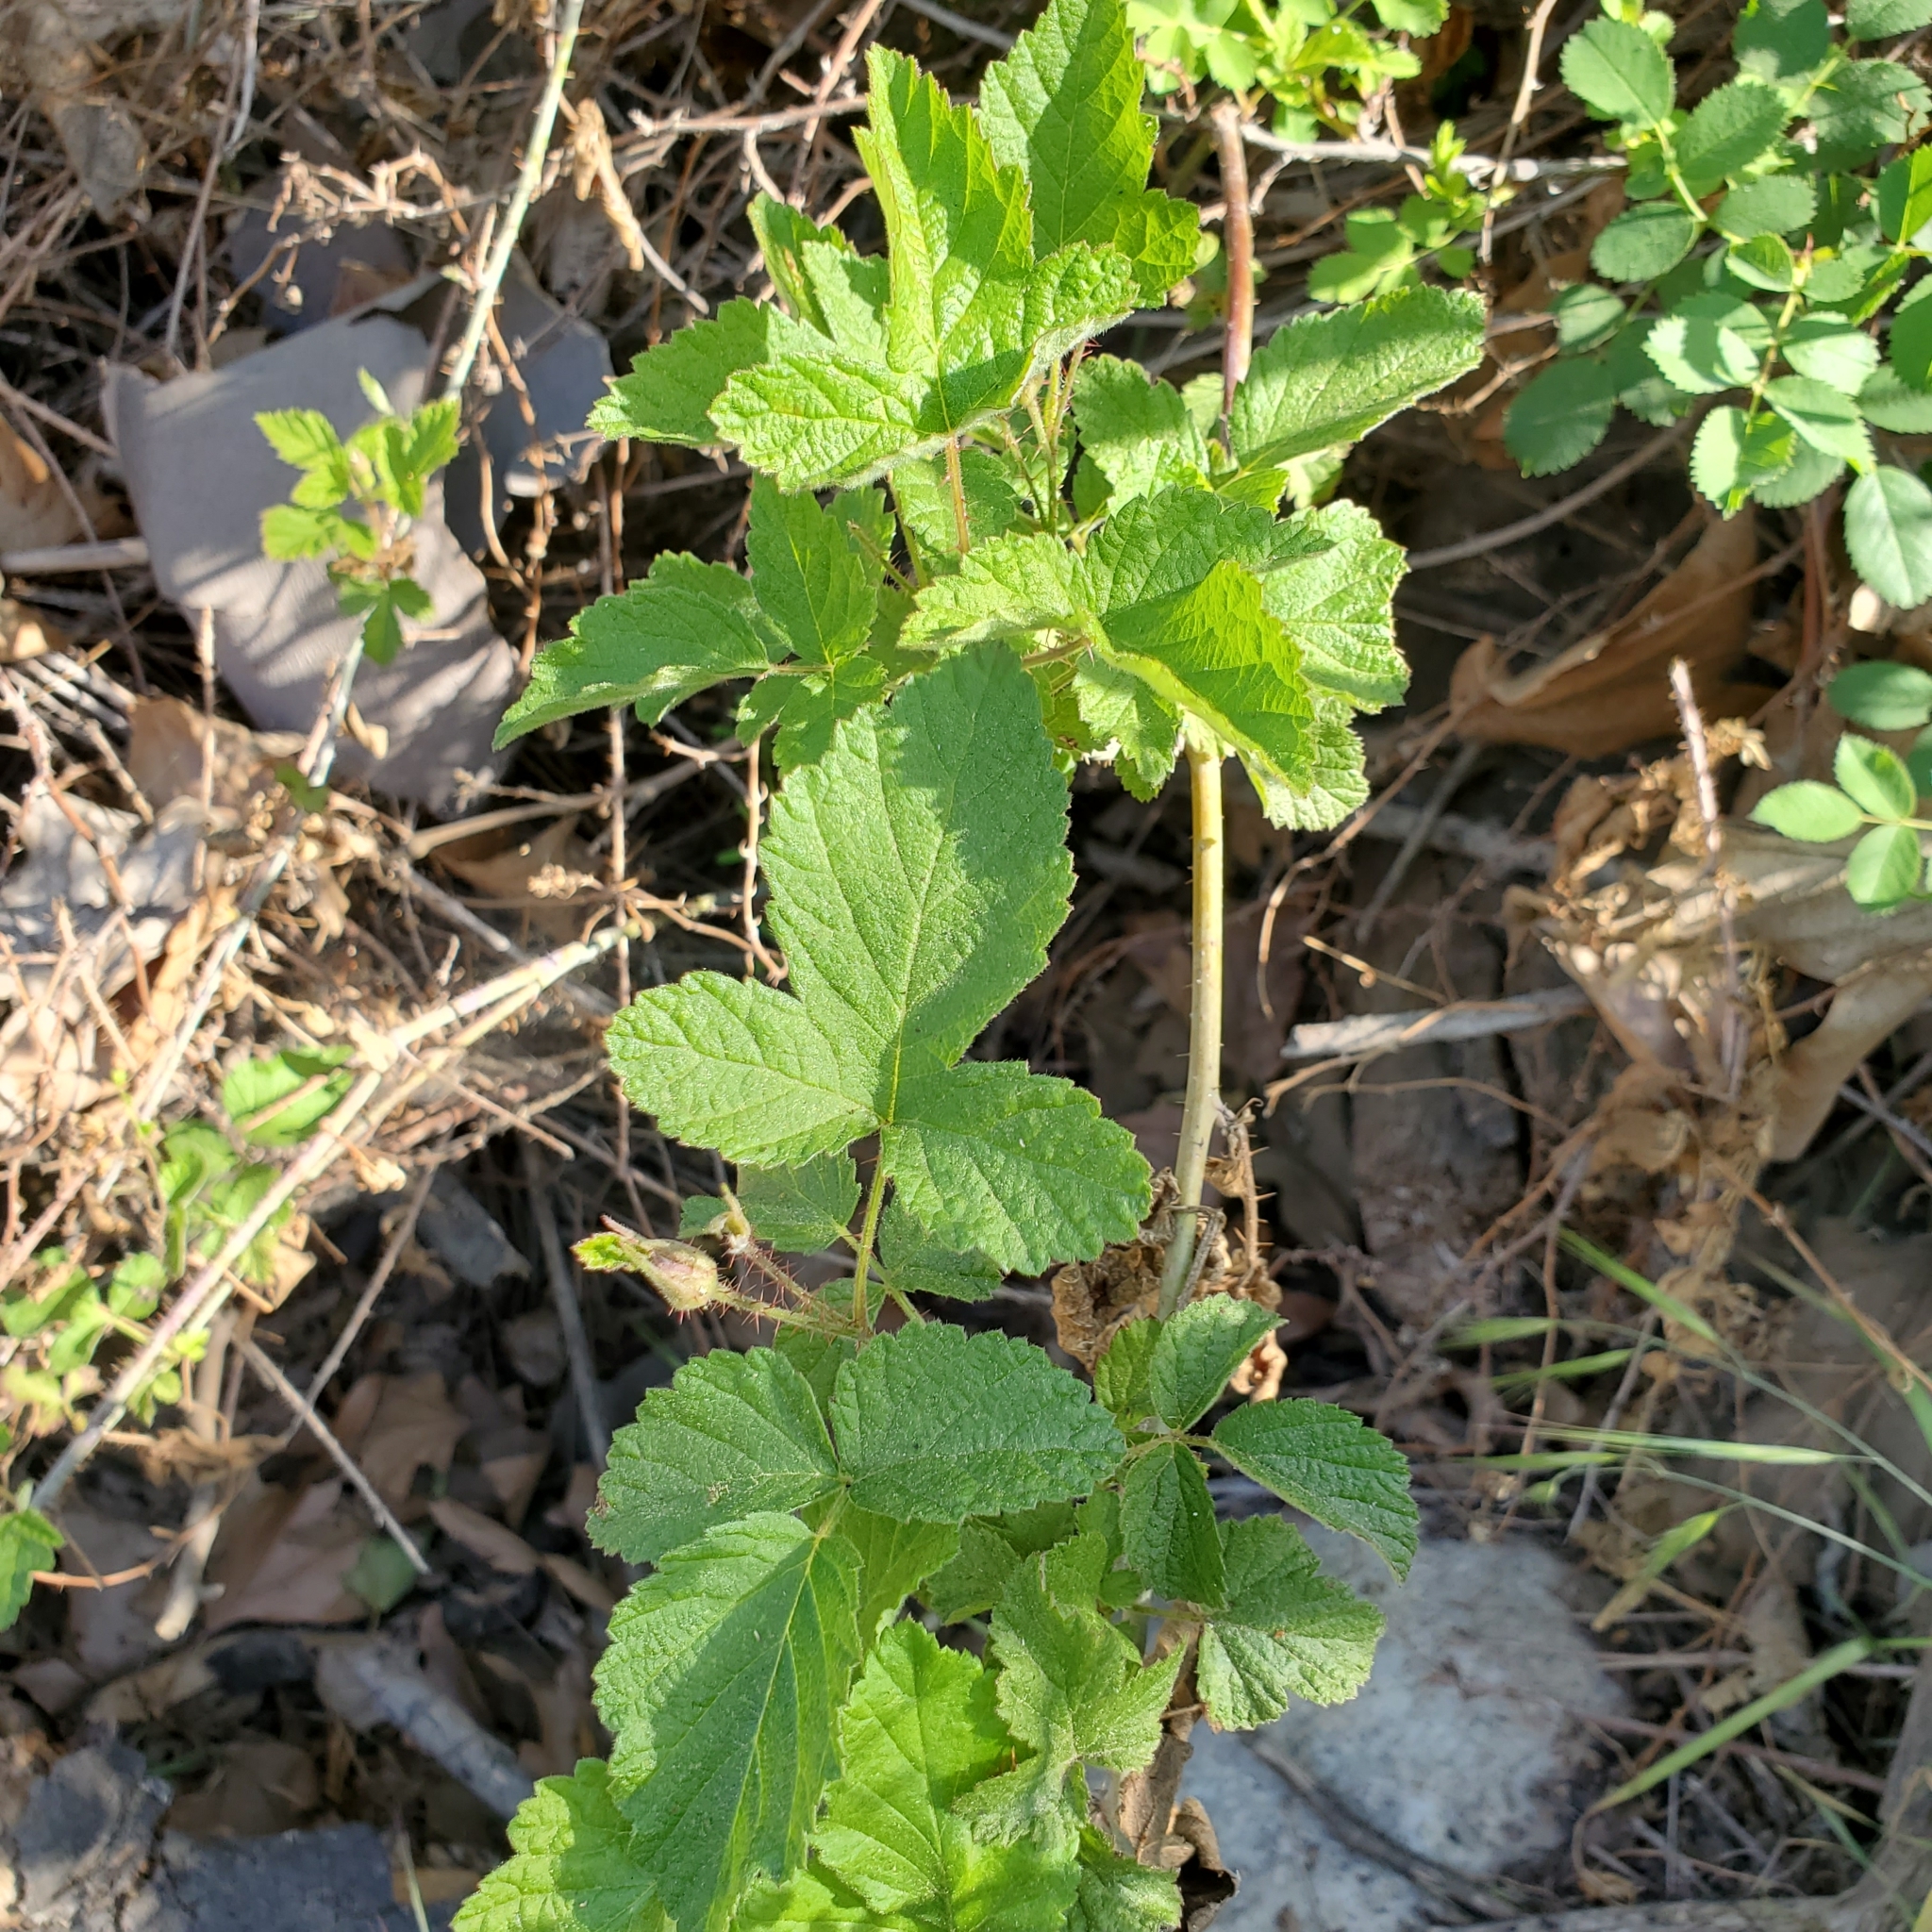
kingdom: Plantae
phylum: Tracheophyta
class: Magnoliopsida
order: Rosales
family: Rosaceae
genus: Rubus
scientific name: Rubus ursinus
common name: Pacific blackberry
